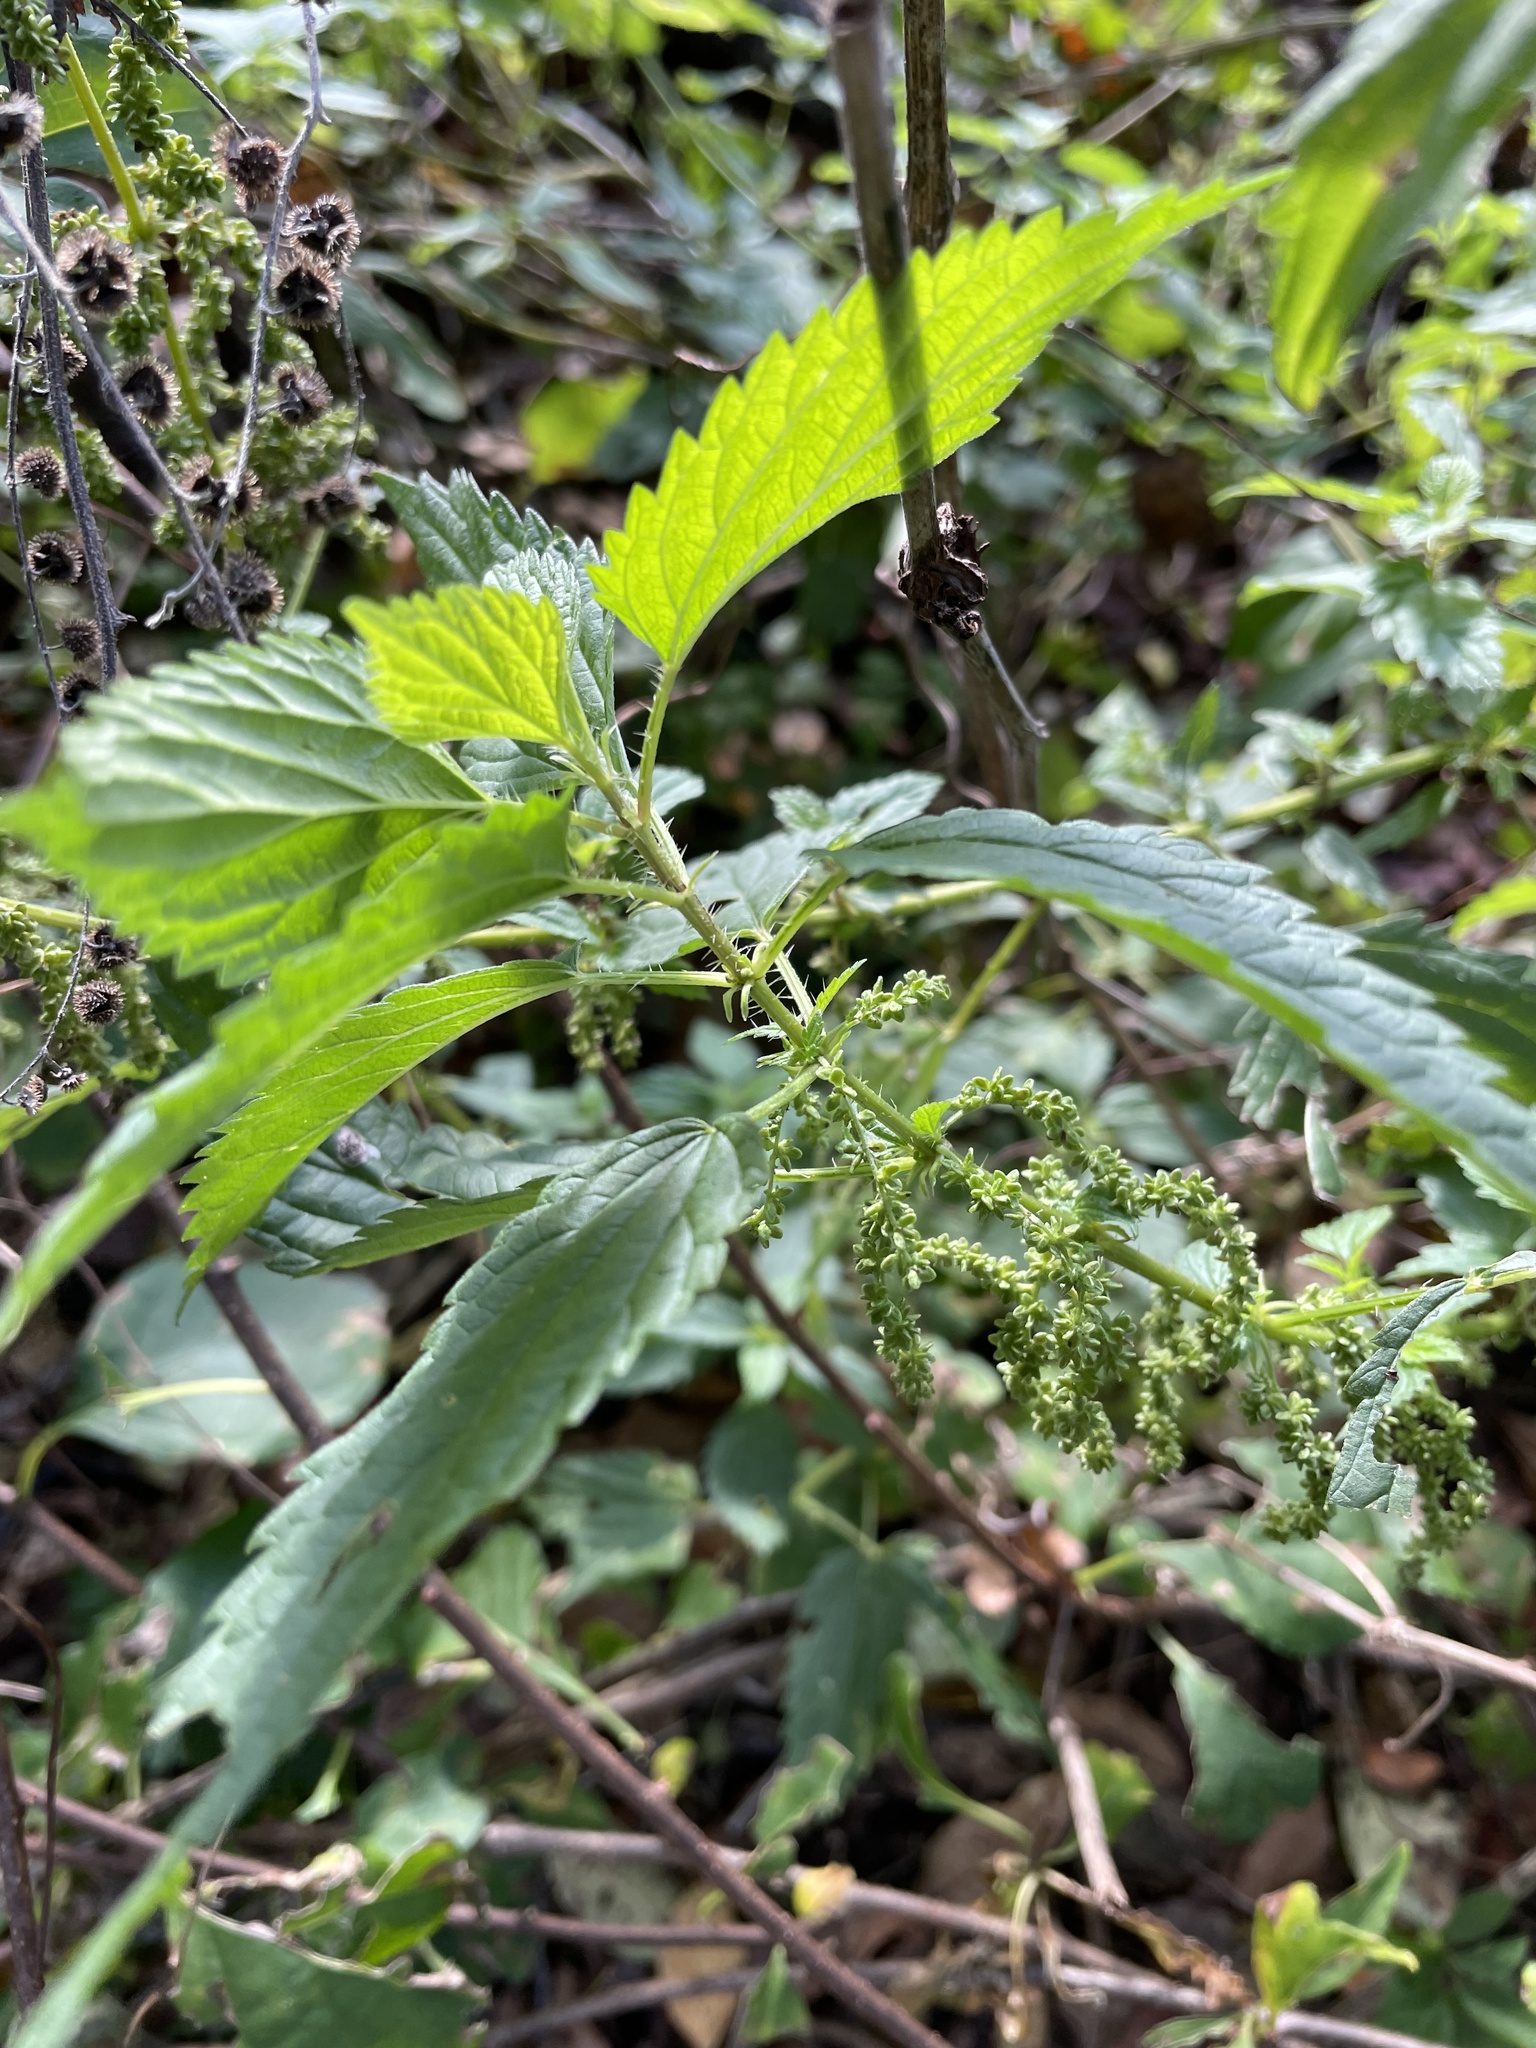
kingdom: Plantae
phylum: Tracheophyta
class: Magnoliopsida
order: Rosales
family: Urticaceae
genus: Urtica
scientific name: Urtica dioica
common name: Common nettle
